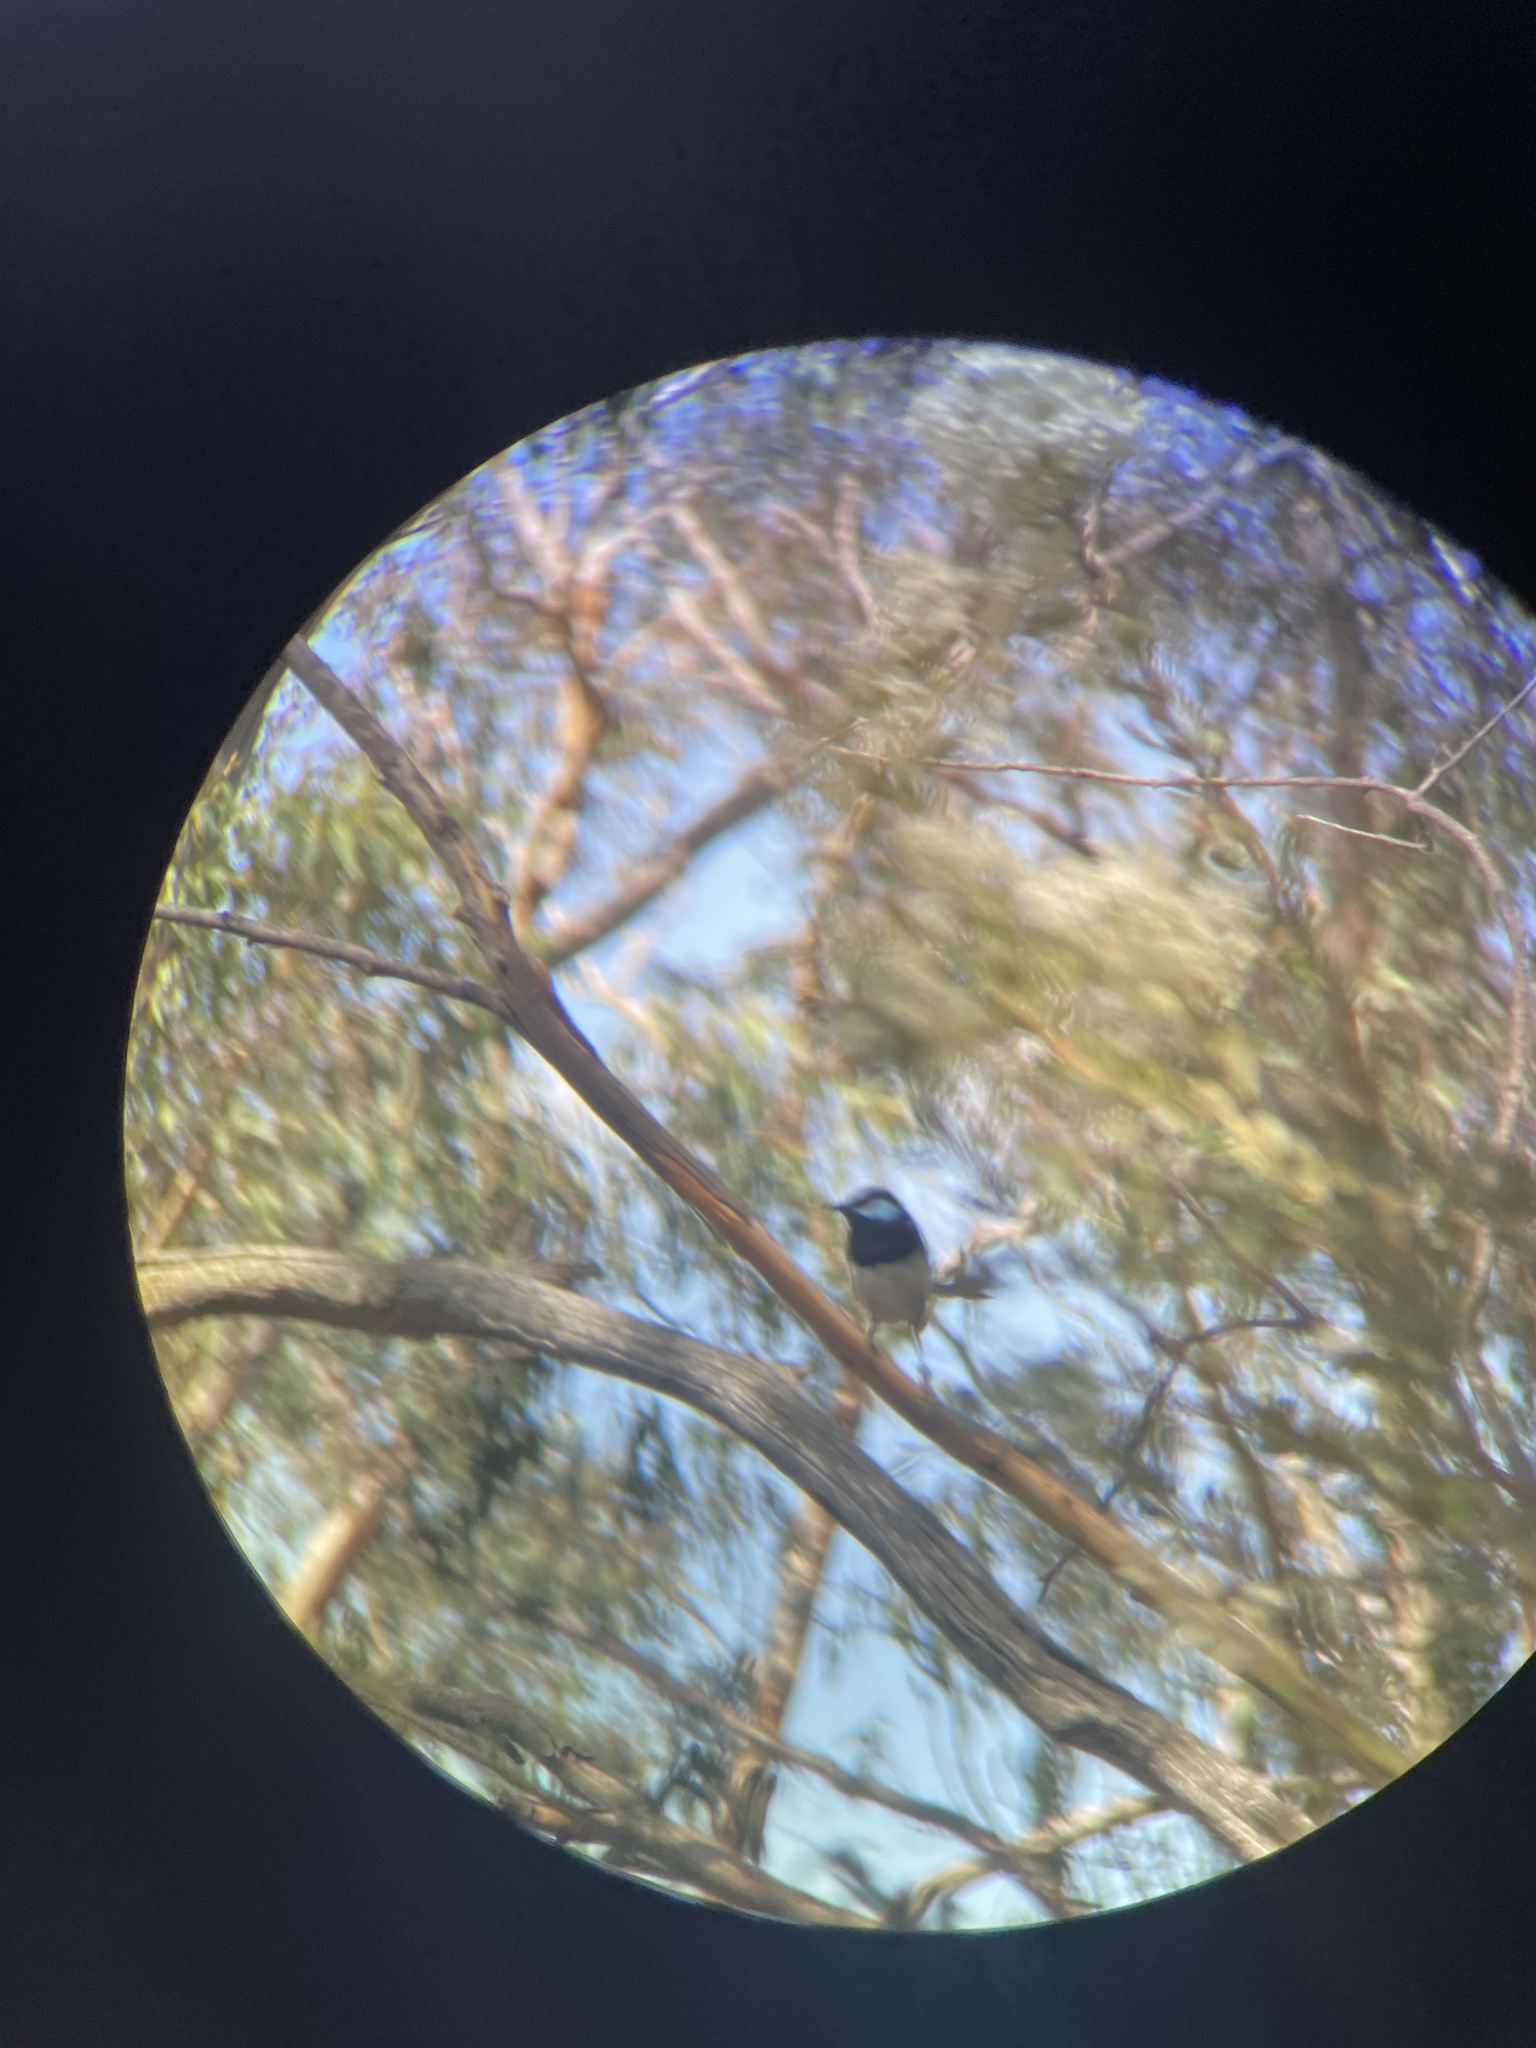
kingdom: Animalia
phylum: Chordata
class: Aves
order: Passeriformes
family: Maluridae
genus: Malurus
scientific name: Malurus cyaneus
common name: Superb fairywren
